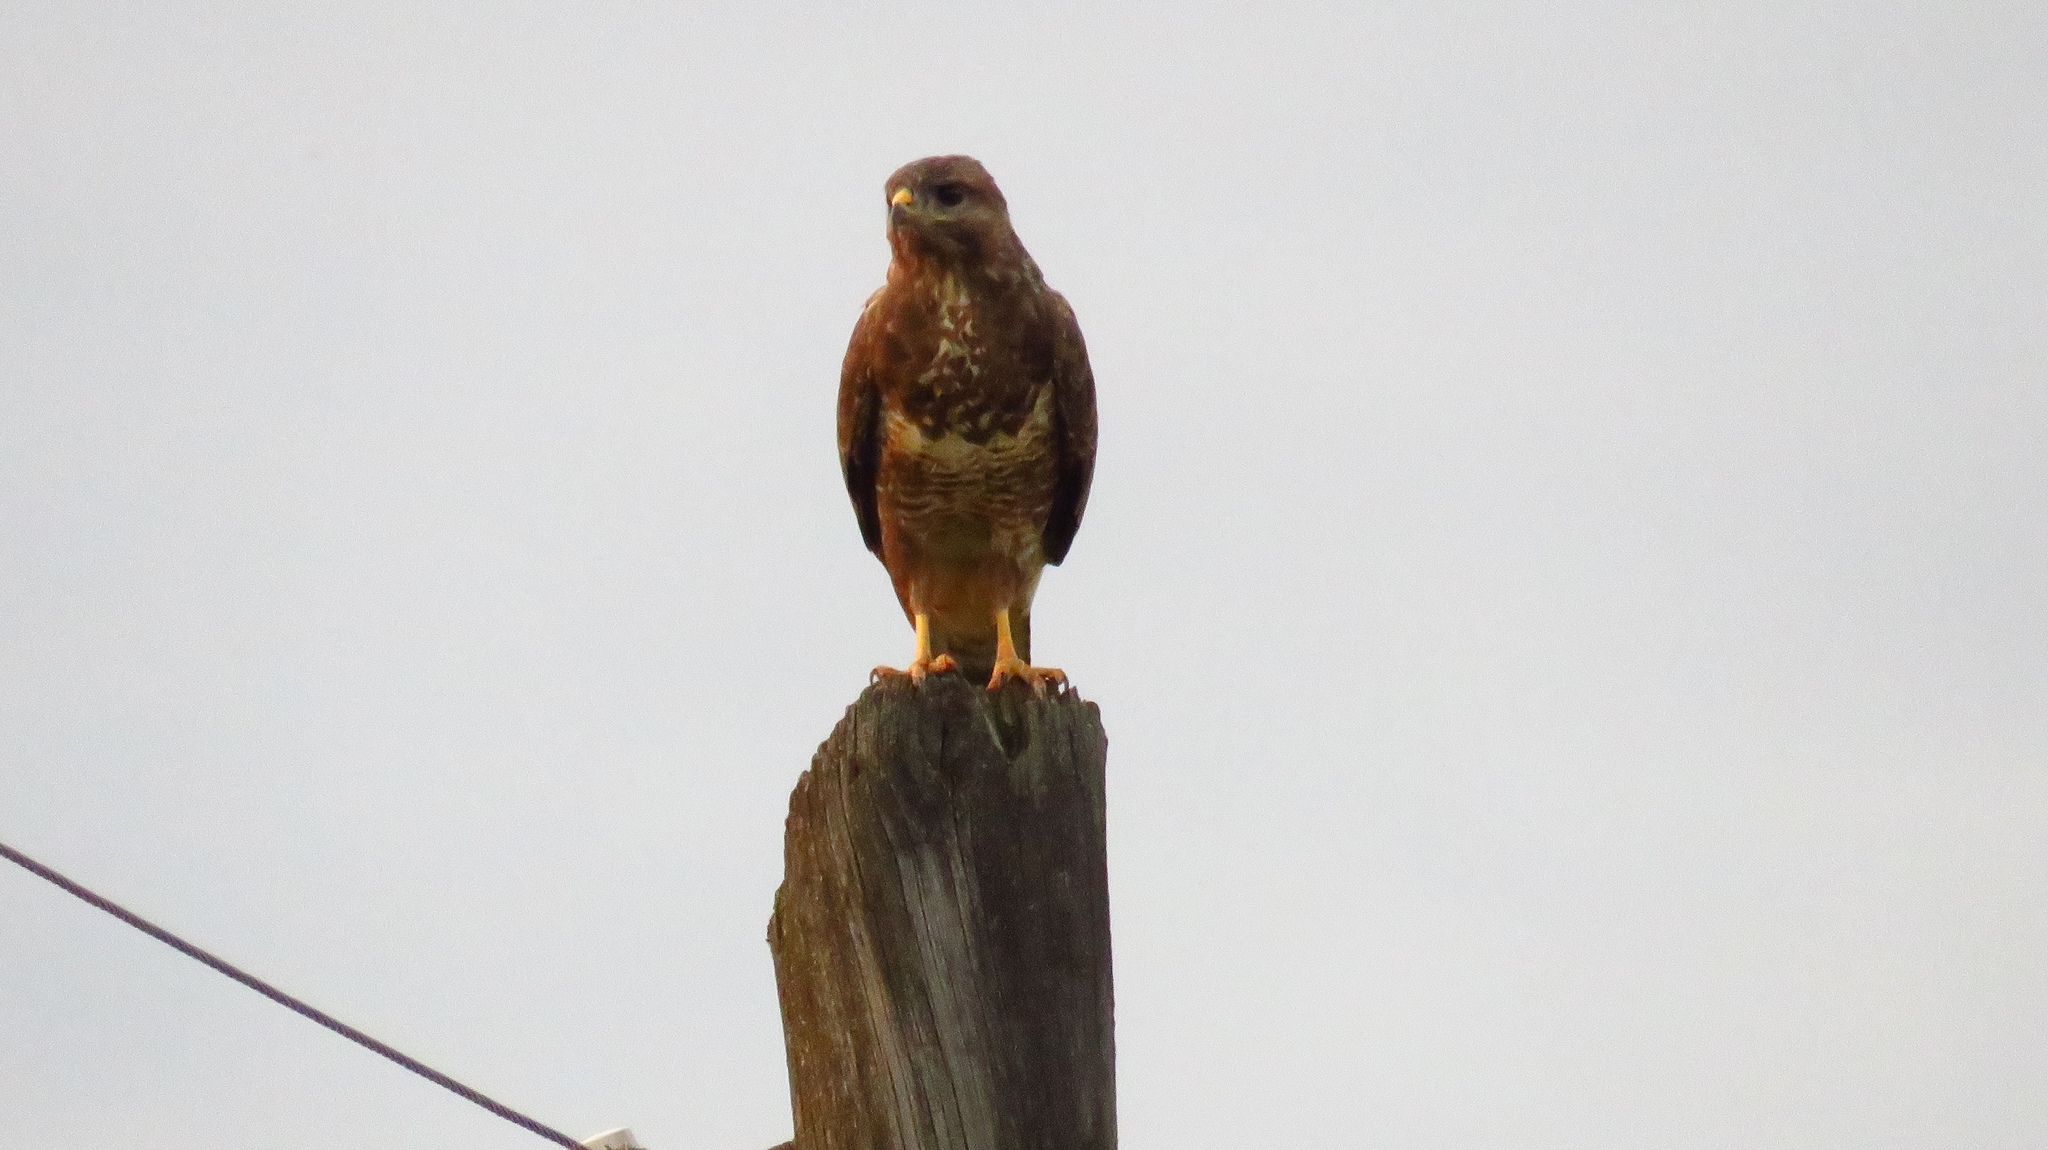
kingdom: Animalia
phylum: Chordata
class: Aves
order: Accipitriformes
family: Accipitridae
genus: Buteo
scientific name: Buteo buteo
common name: Common buzzard
